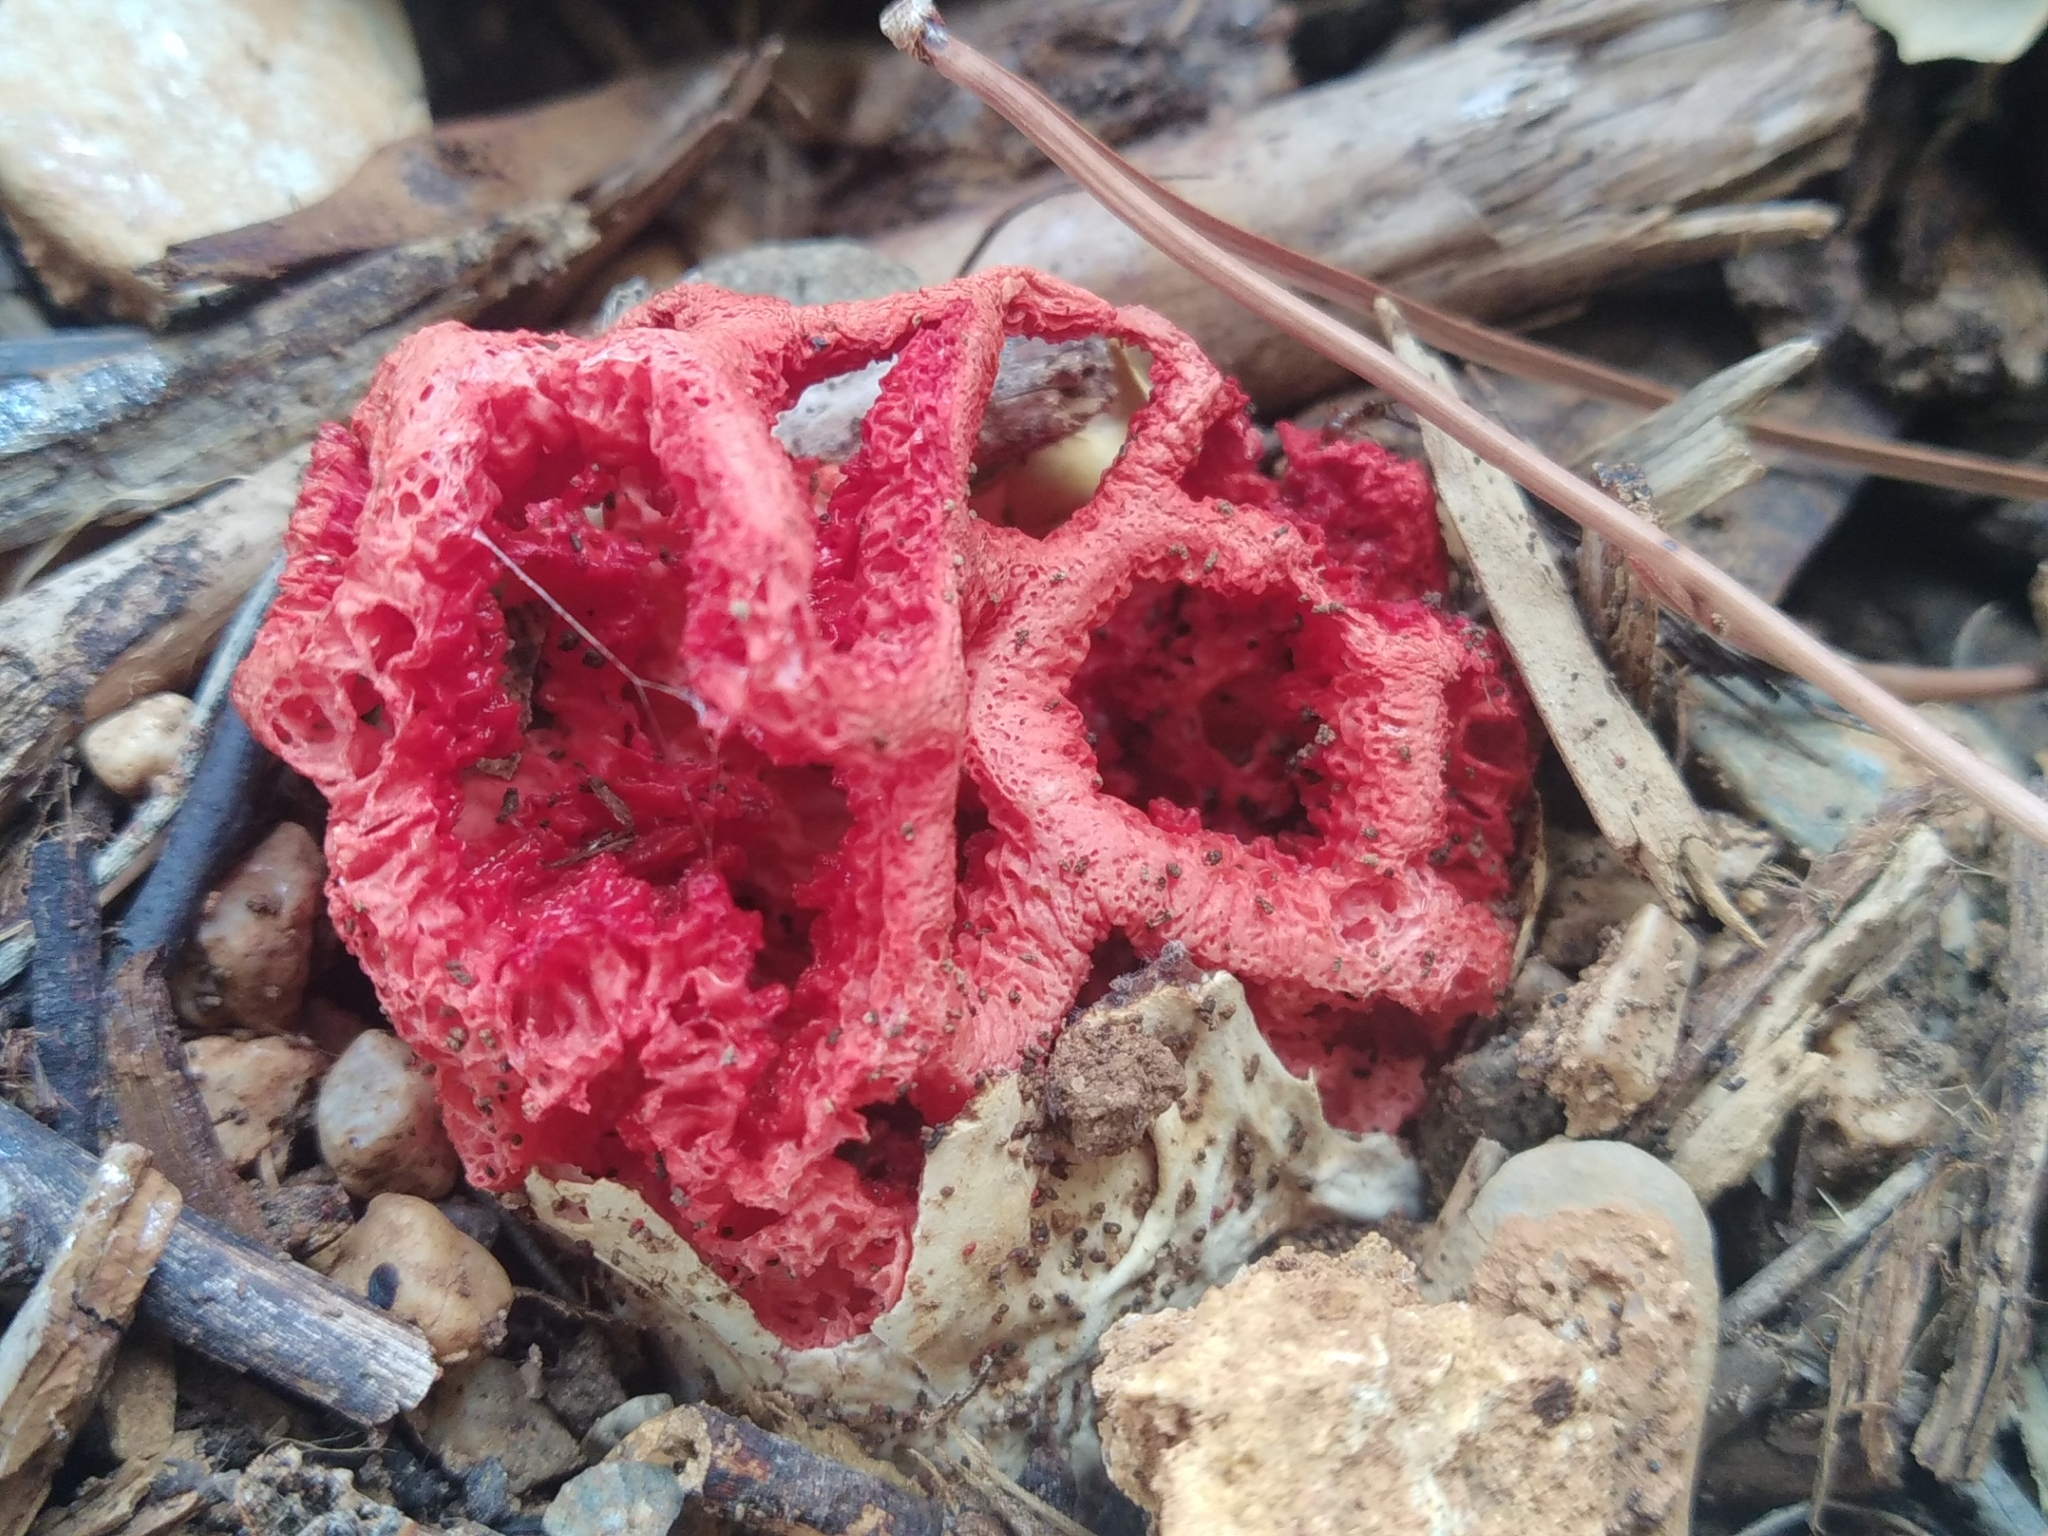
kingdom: Fungi
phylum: Basidiomycota
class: Agaricomycetes
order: Phallales
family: Phallaceae
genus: Clathrus
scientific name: Clathrus ruber
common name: Red cage
